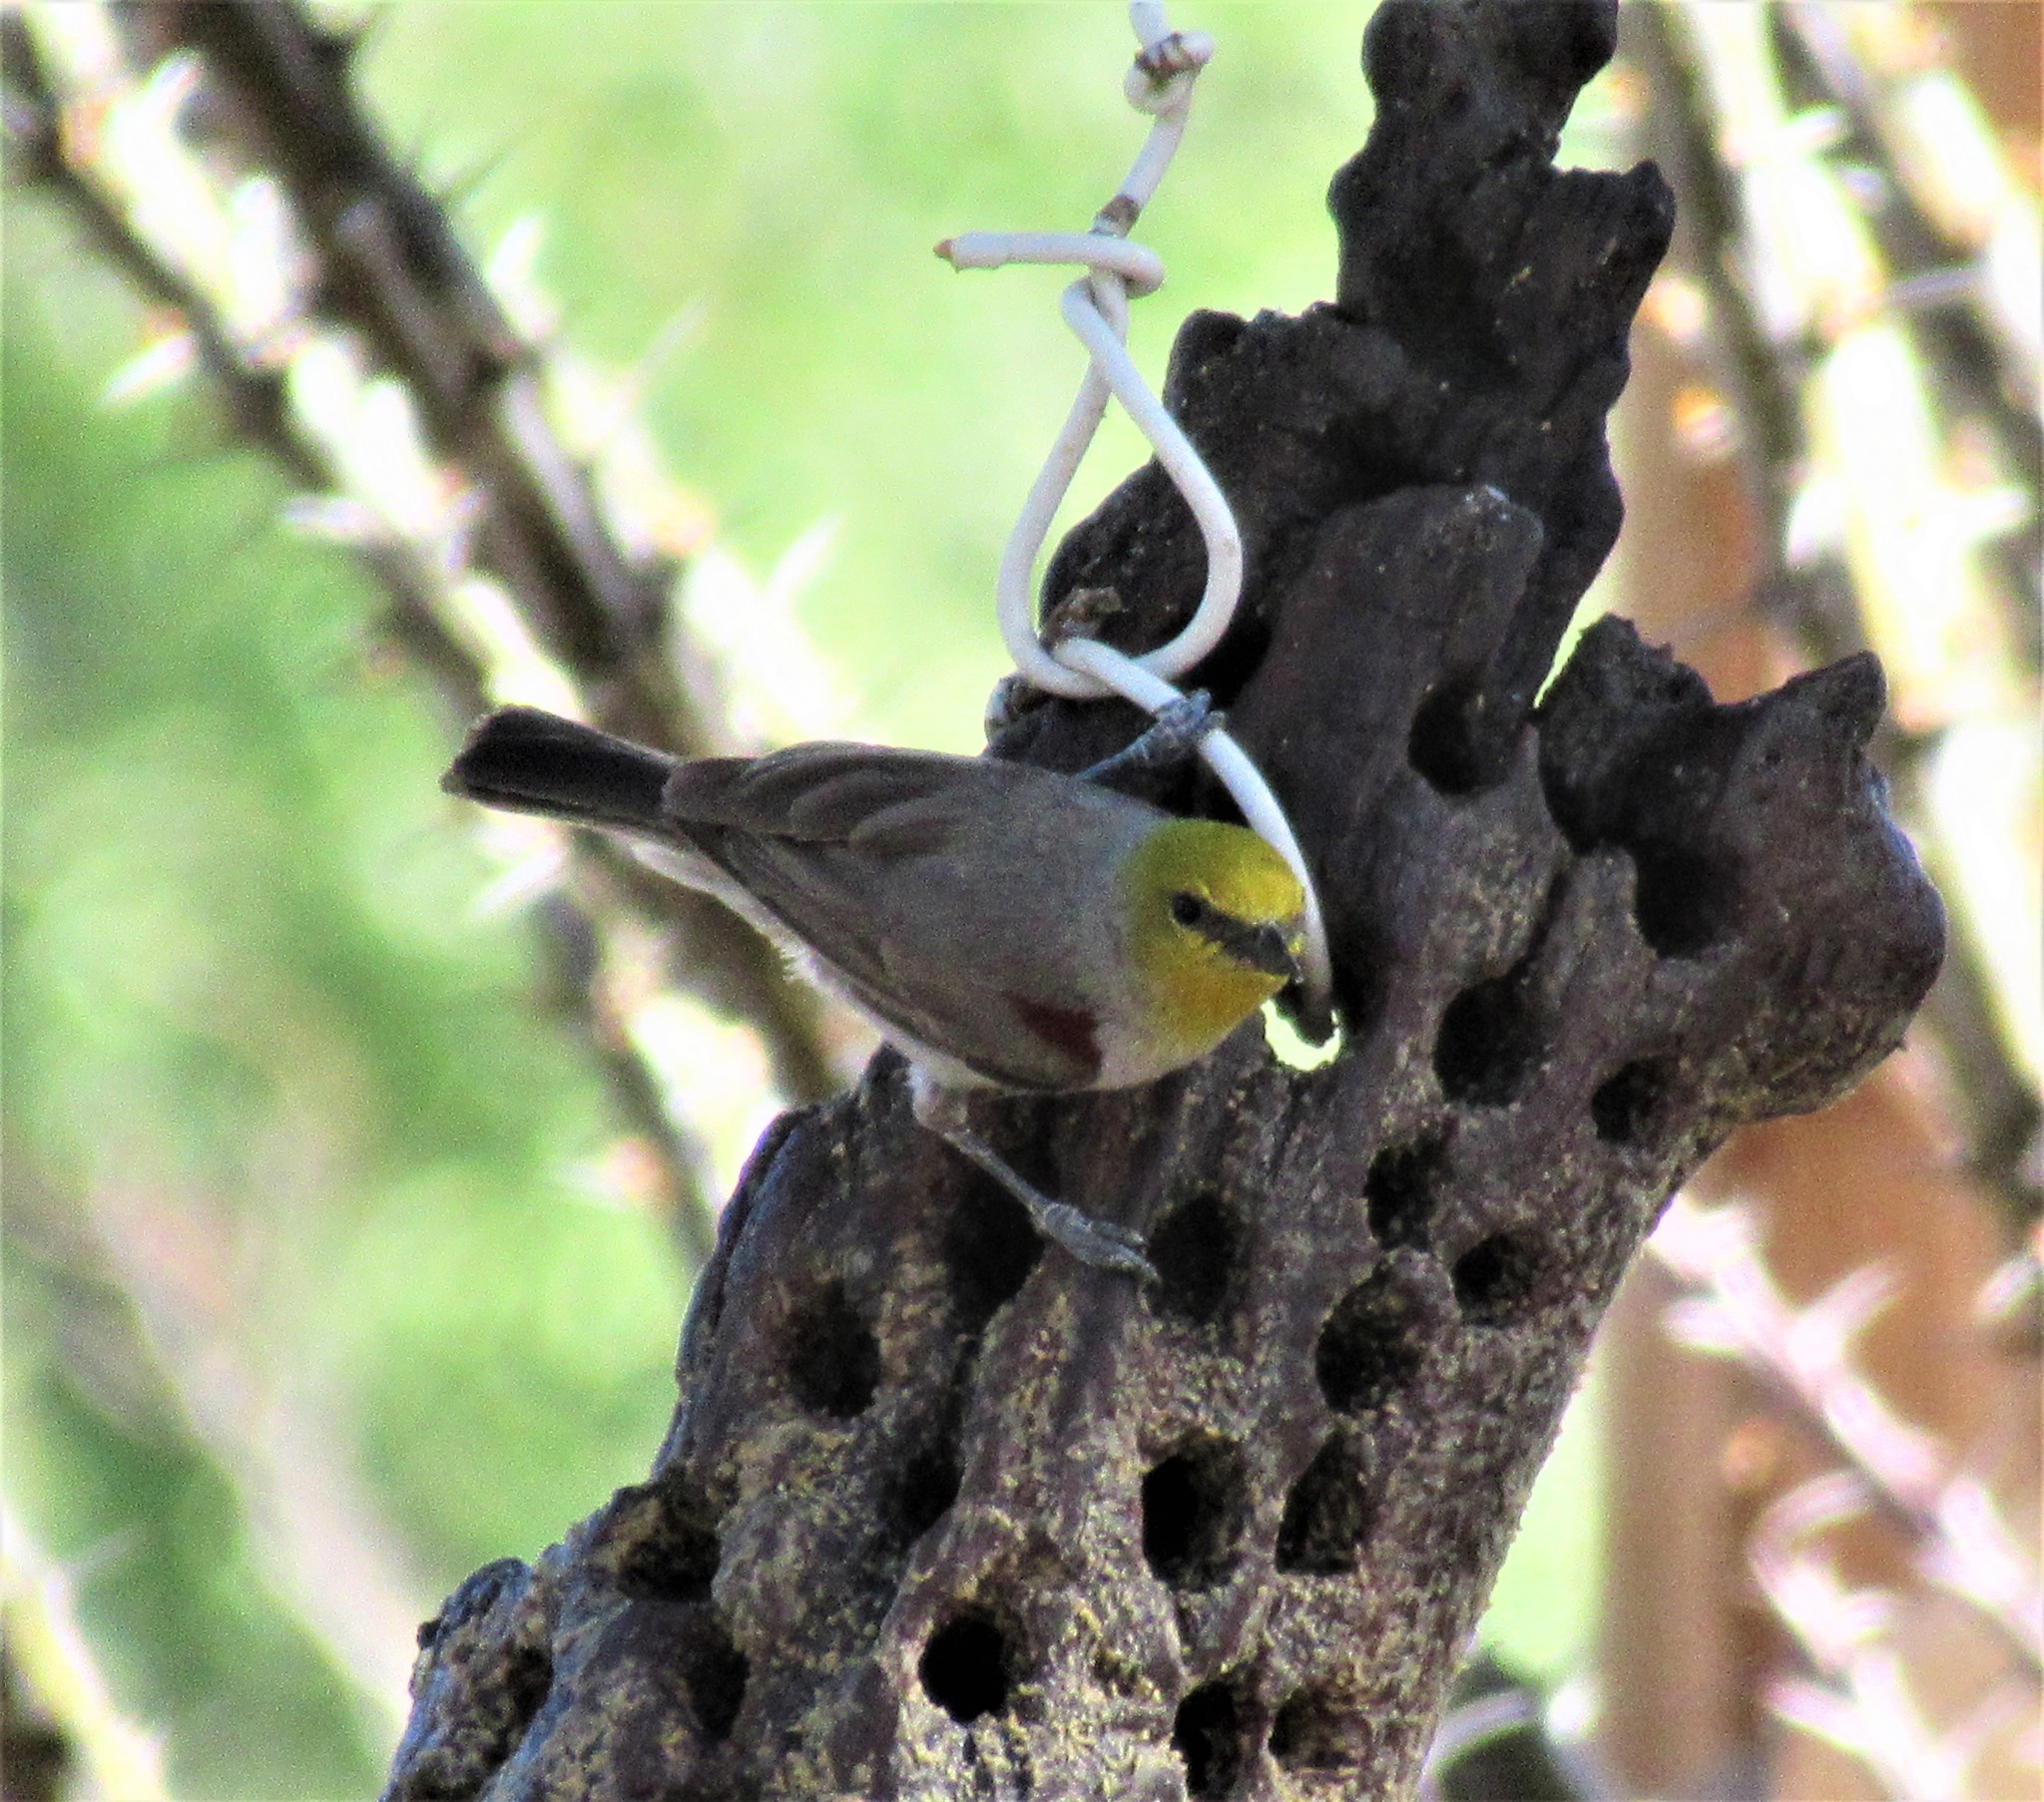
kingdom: Animalia
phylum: Chordata
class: Aves
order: Passeriformes
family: Remizidae
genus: Auriparus
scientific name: Auriparus flaviceps
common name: Verdin
